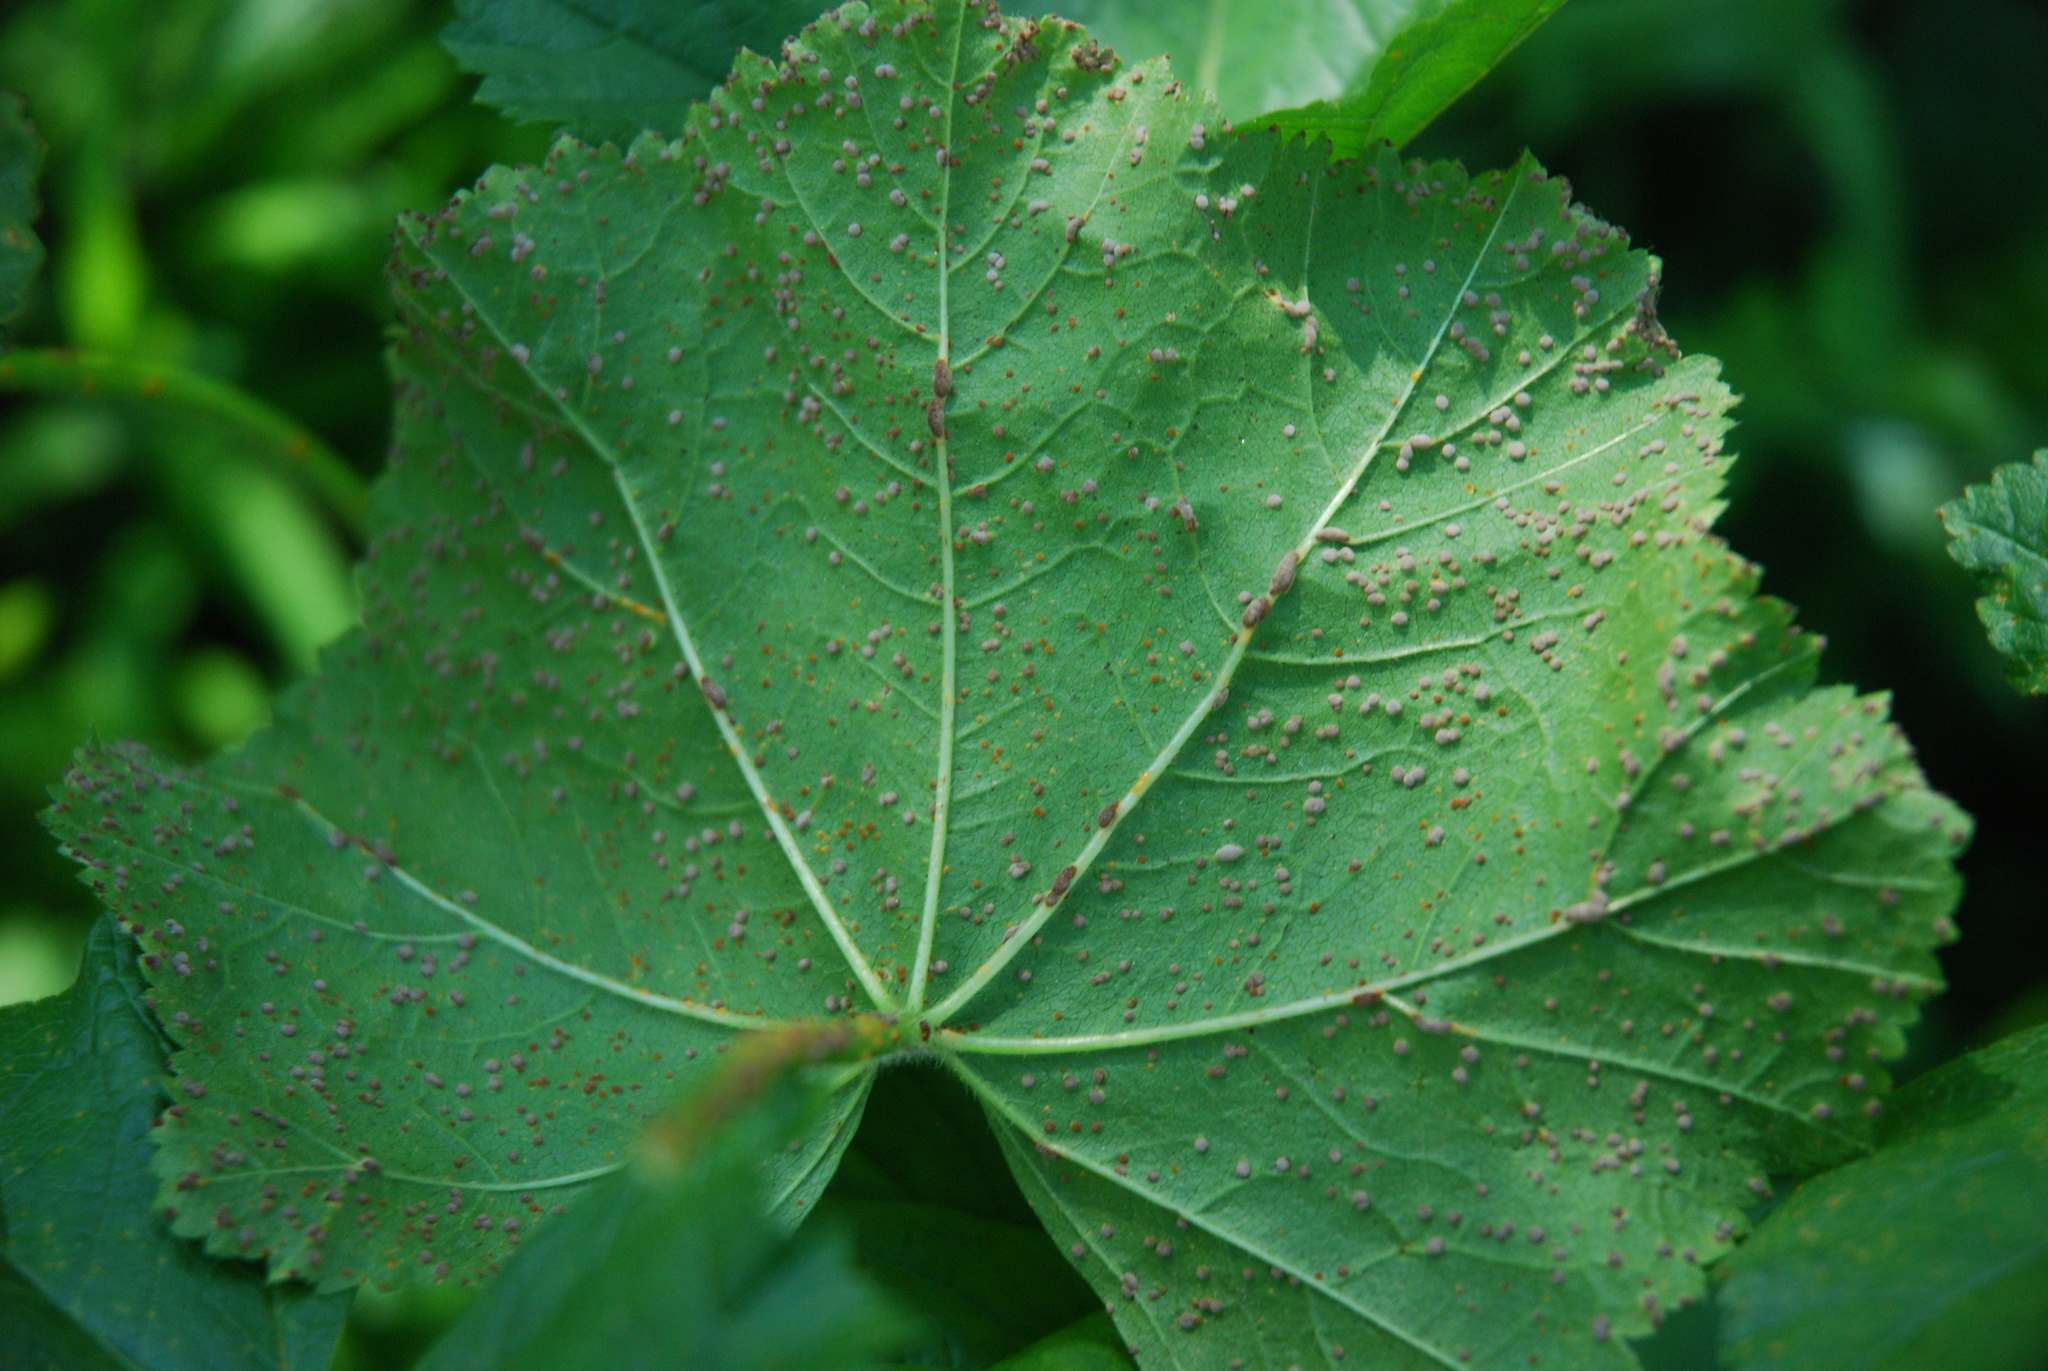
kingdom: Fungi
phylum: Basidiomycota
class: Pucciniomycetes
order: Pucciniales
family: Pucciniaceae
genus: Puccinia
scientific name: Puccinia malvacearum
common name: Hollyhock rust
